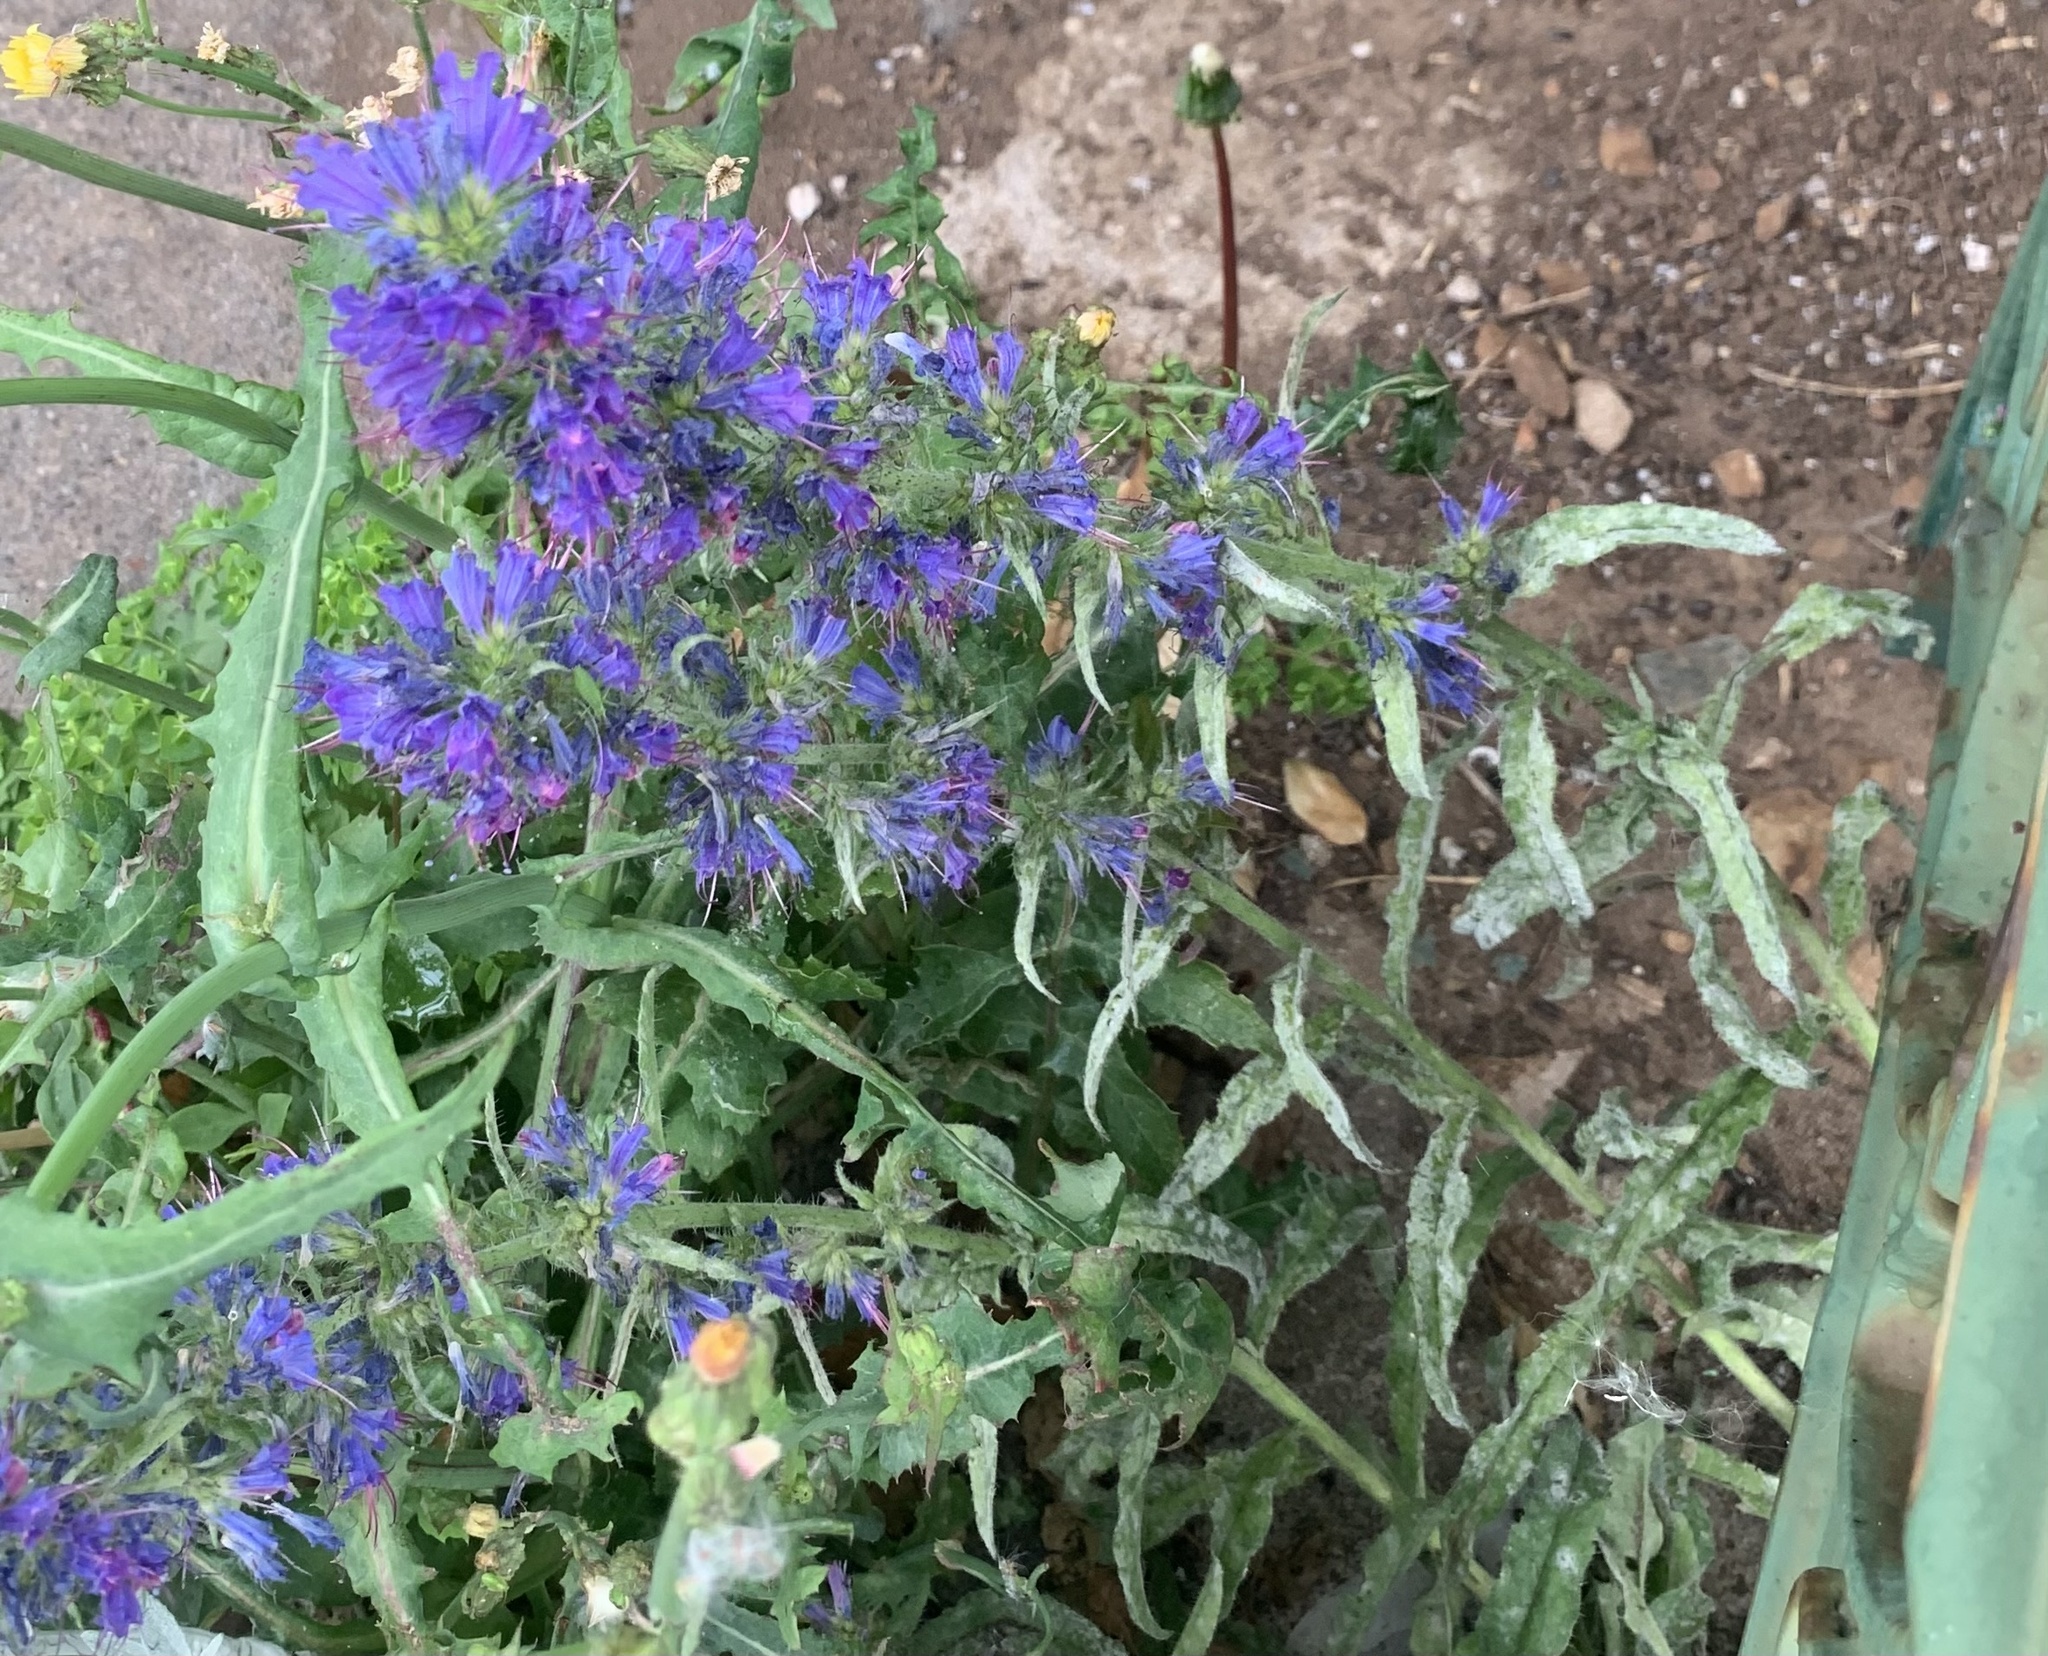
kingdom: Plantae
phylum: Tracheophyta
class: Magnoliopsida
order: Boraginales
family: Boraginaceae
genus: Echium
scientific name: Echium vulgare
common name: Common viper's bugloss
